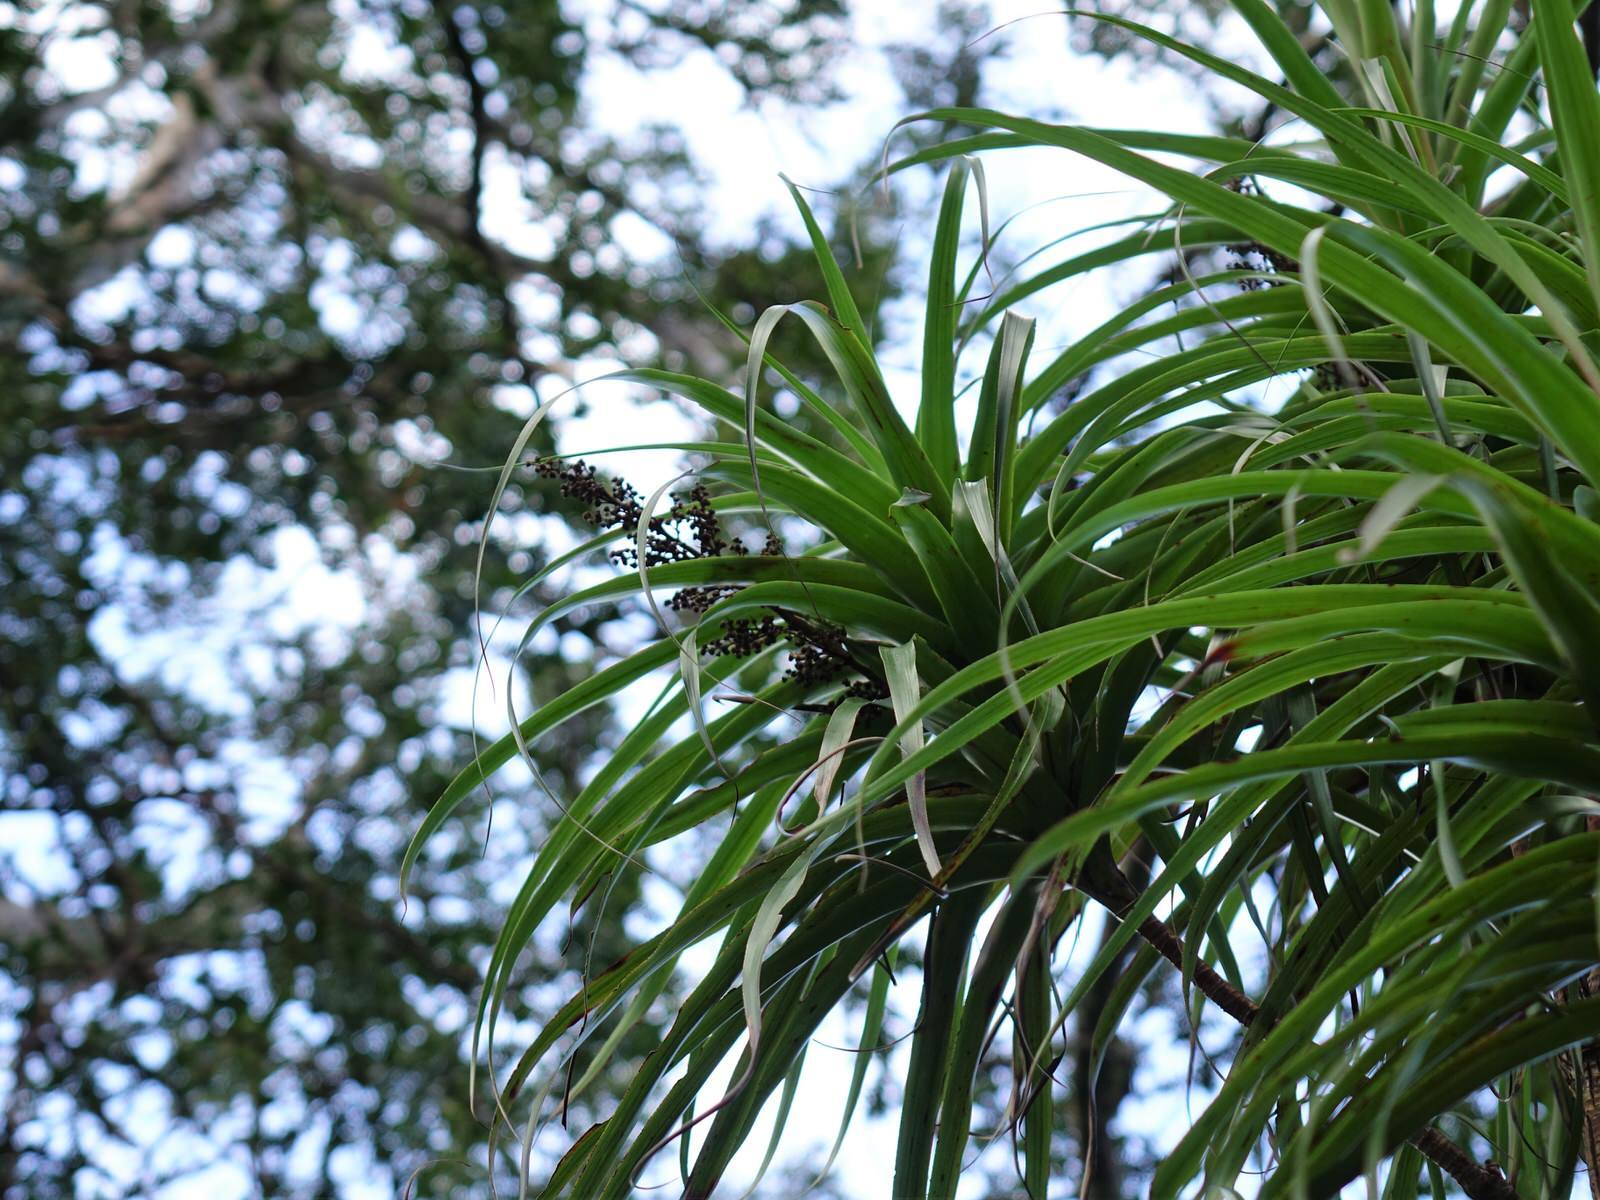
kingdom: Plantae
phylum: Tracheophyta
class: Magnoliopsida
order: Ericales
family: Ericaceae
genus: Dracophyllum
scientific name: Dracophyllum latifolium
